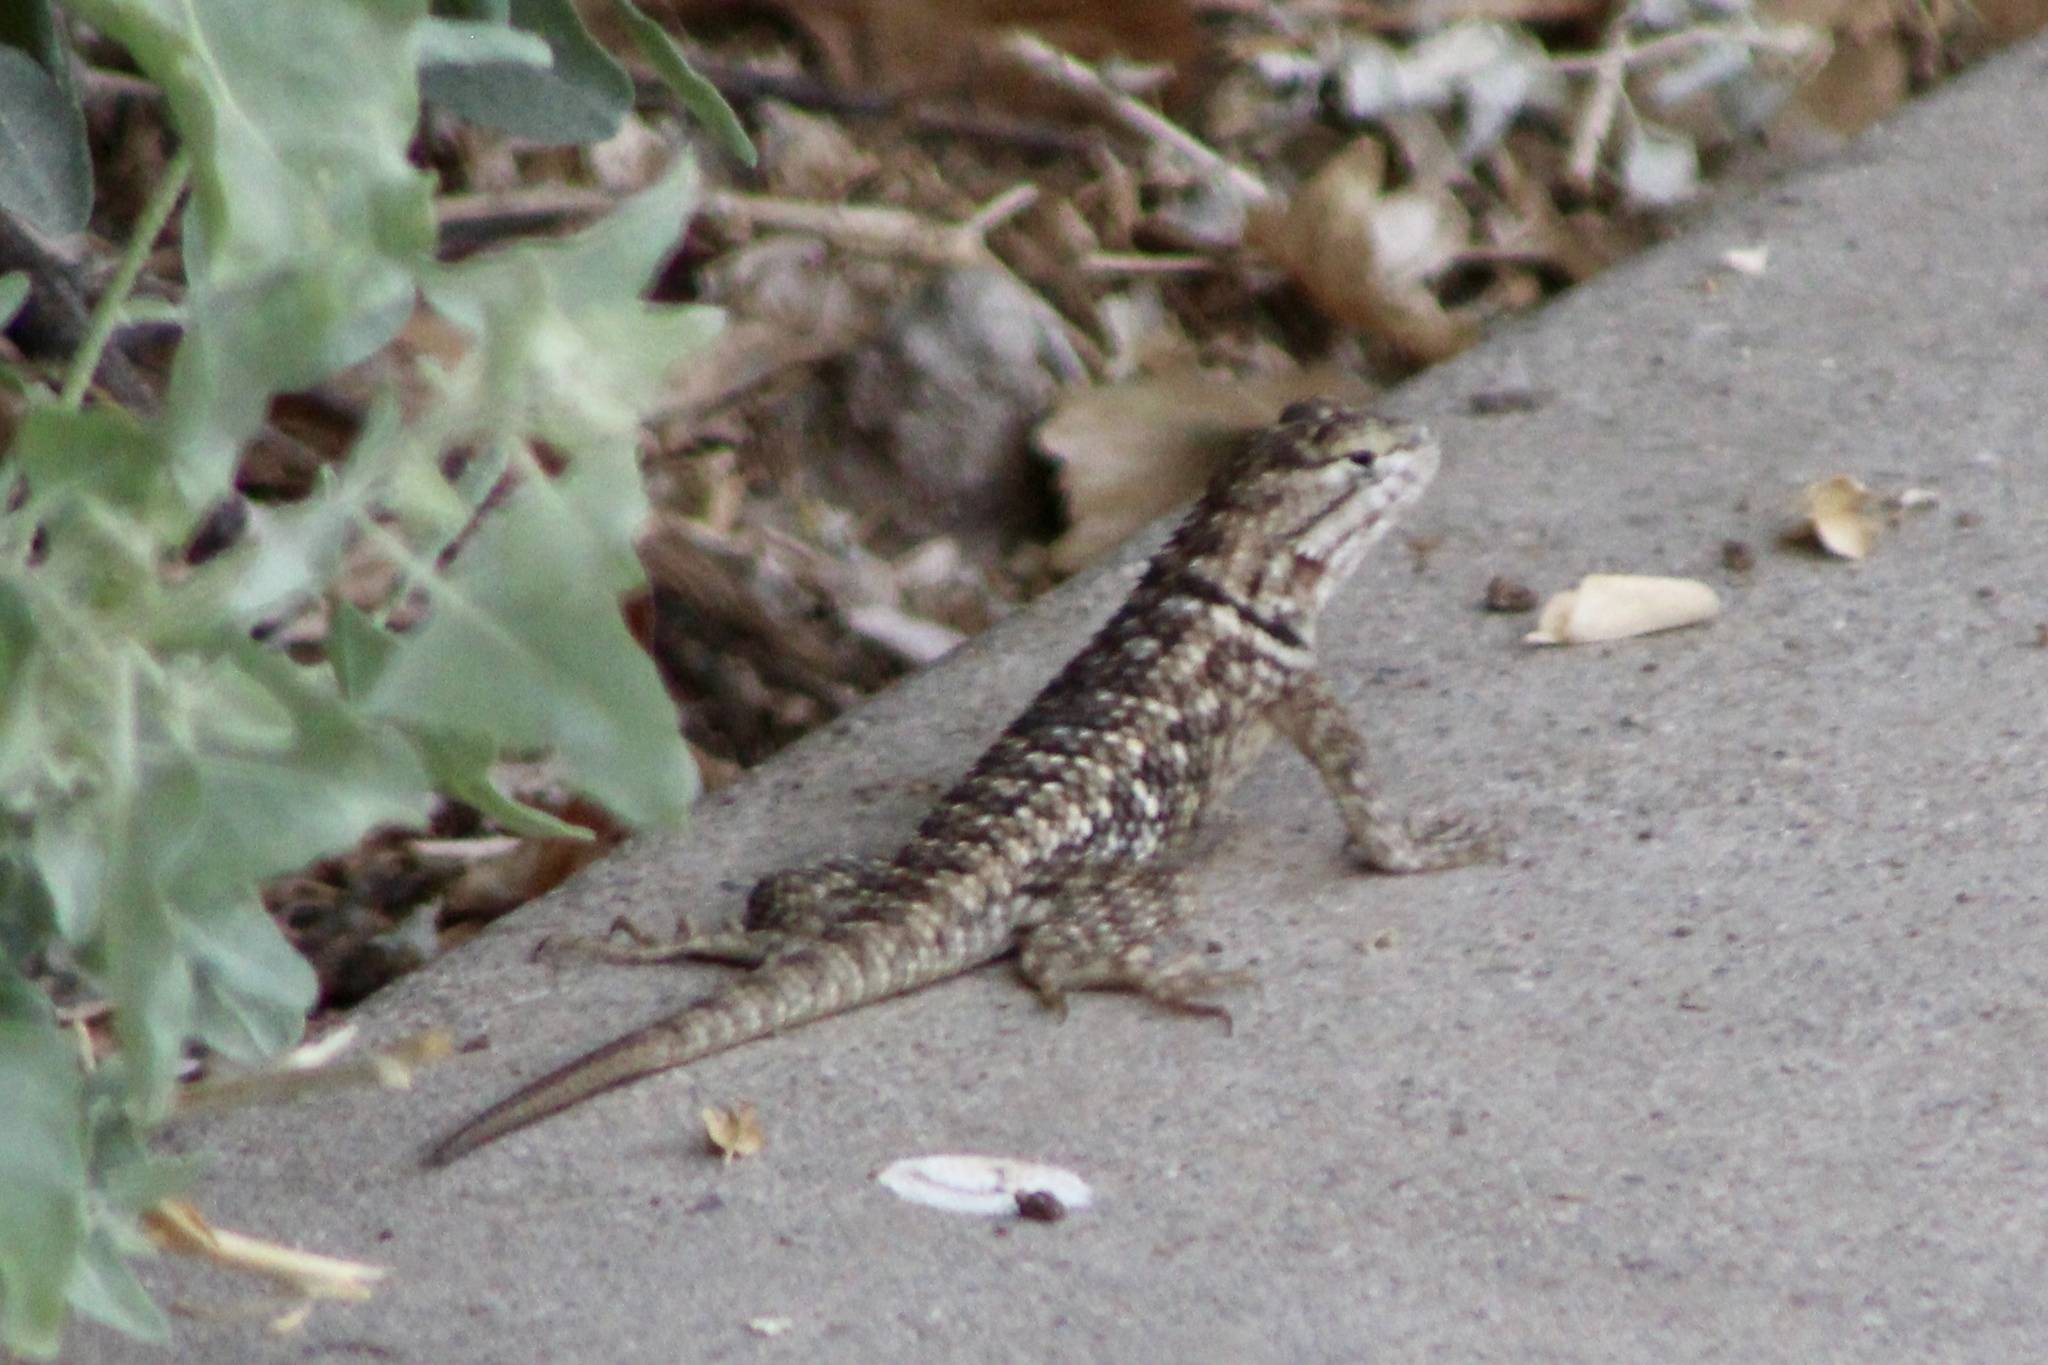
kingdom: Animalia
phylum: Chordata
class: Squamata
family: Phrynosomatidae
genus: Sceloporus
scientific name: Sceloporus magister
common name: Desert spiny lizard
